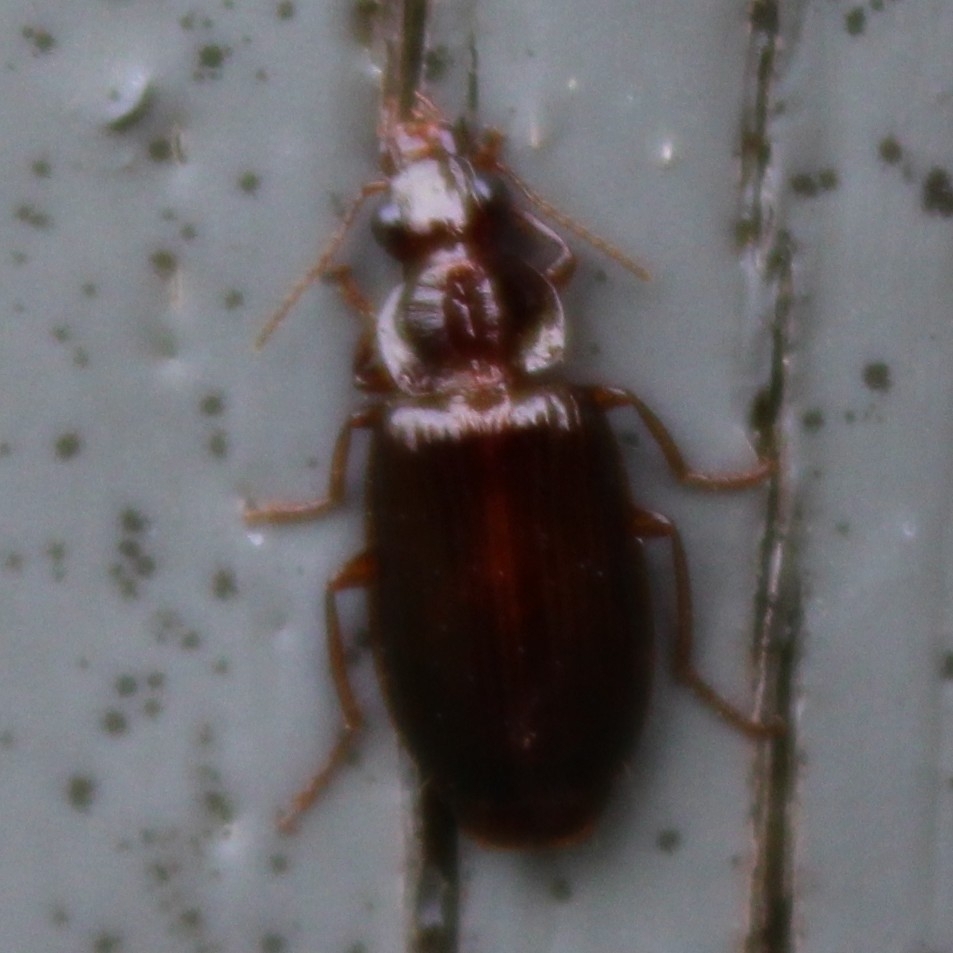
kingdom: Animalia
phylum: Arthropoda
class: Insecta
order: Coleoptera
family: Carabidae
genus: Plochionus
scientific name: Plochionus timidus
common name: Timid harp ground beetle
